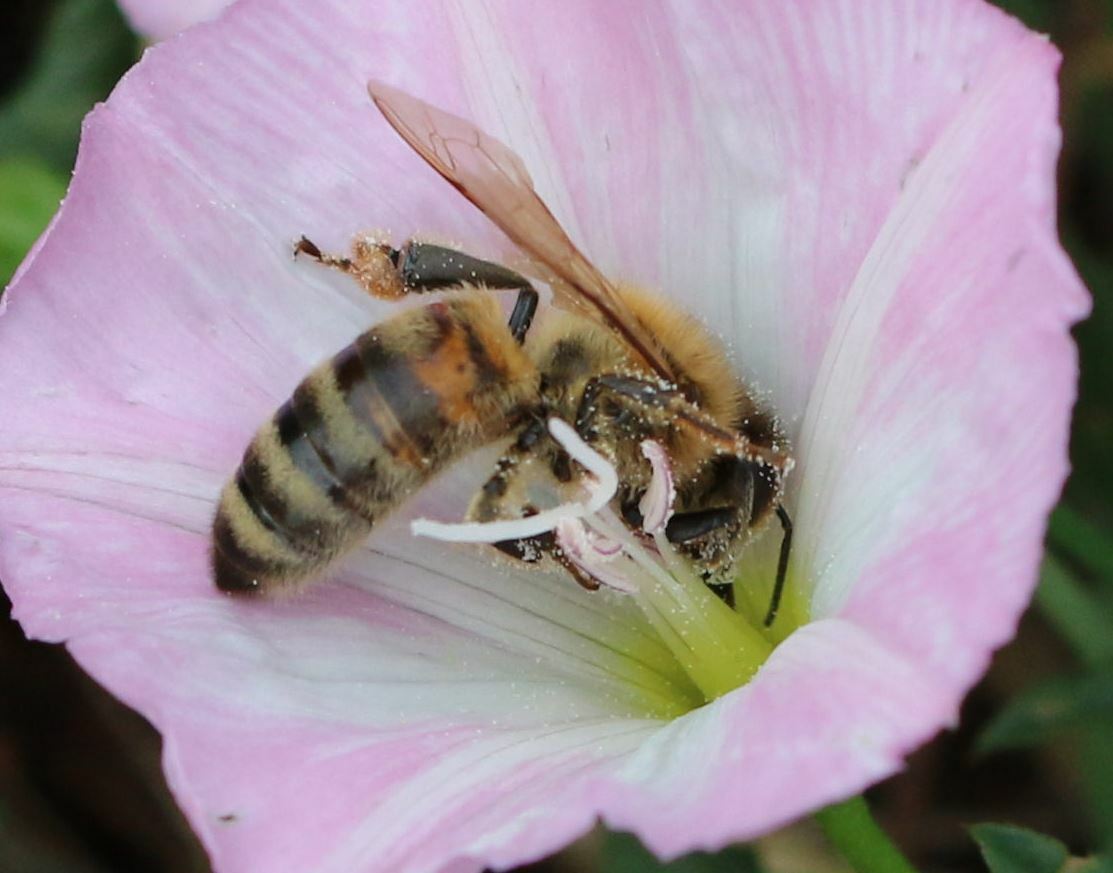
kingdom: Animalia
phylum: Arthropoda
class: Insecta
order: Hymenoptera
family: Apidae
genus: Apis
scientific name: Apis mellifera
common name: Honey bee
